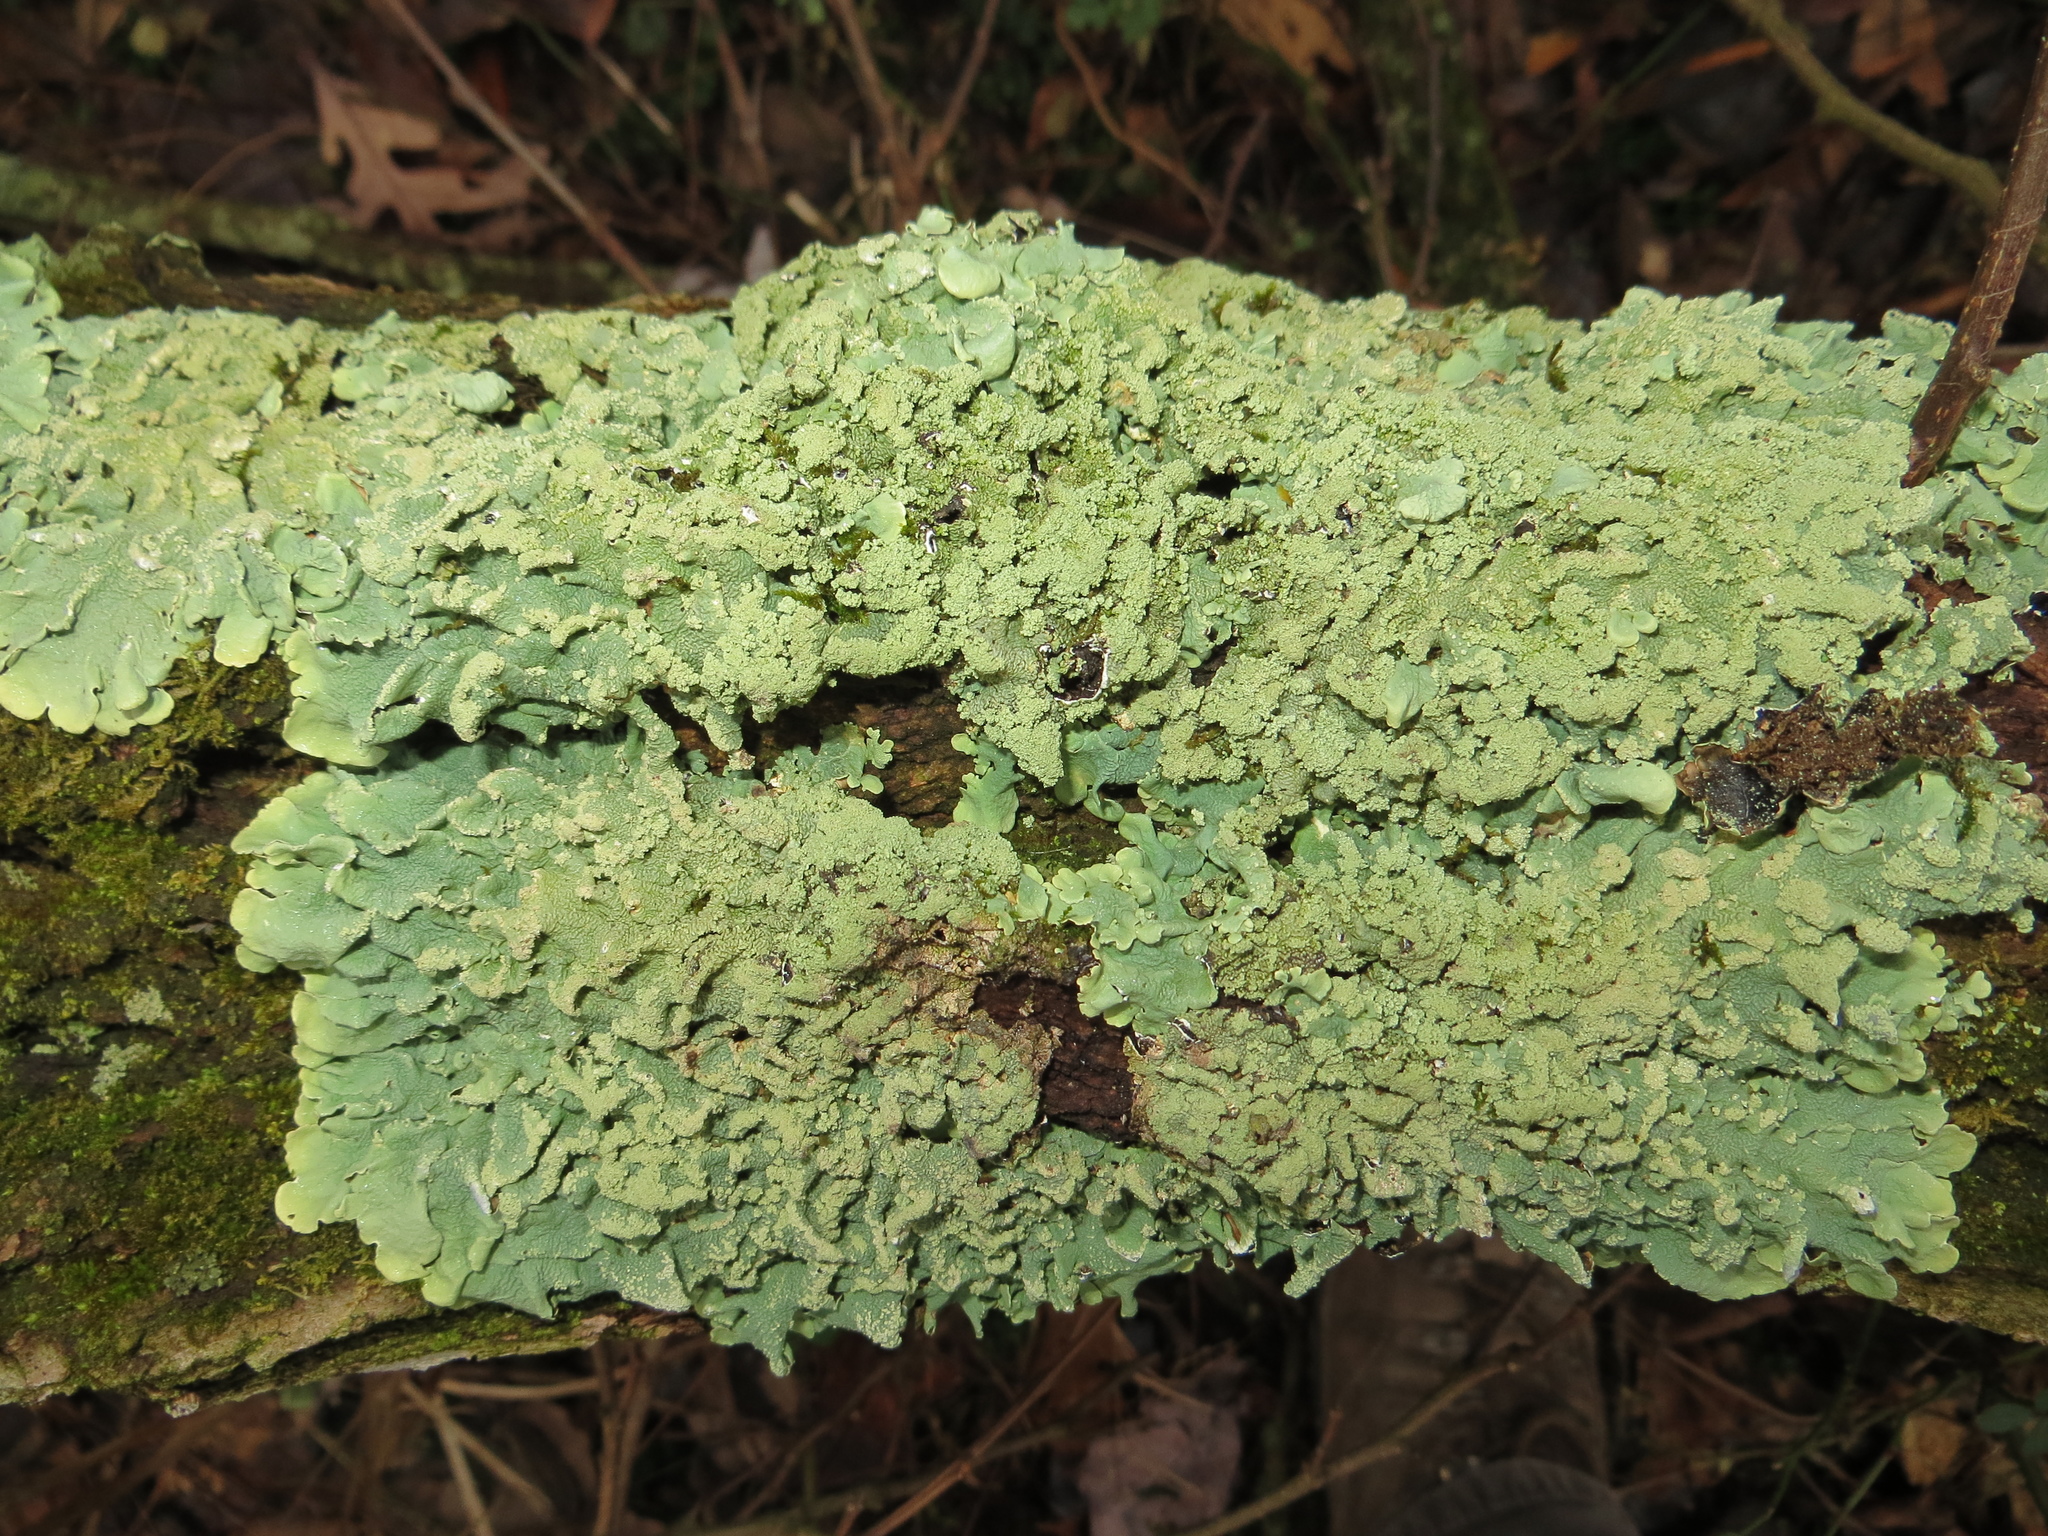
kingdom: Fungi
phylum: Ascomycota
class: Lecanoromycetes
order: Lecanorales
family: Parmeliaceae
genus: Flavoparmelia
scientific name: Flavoparmelia caperata
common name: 40-mile per hour lichen
